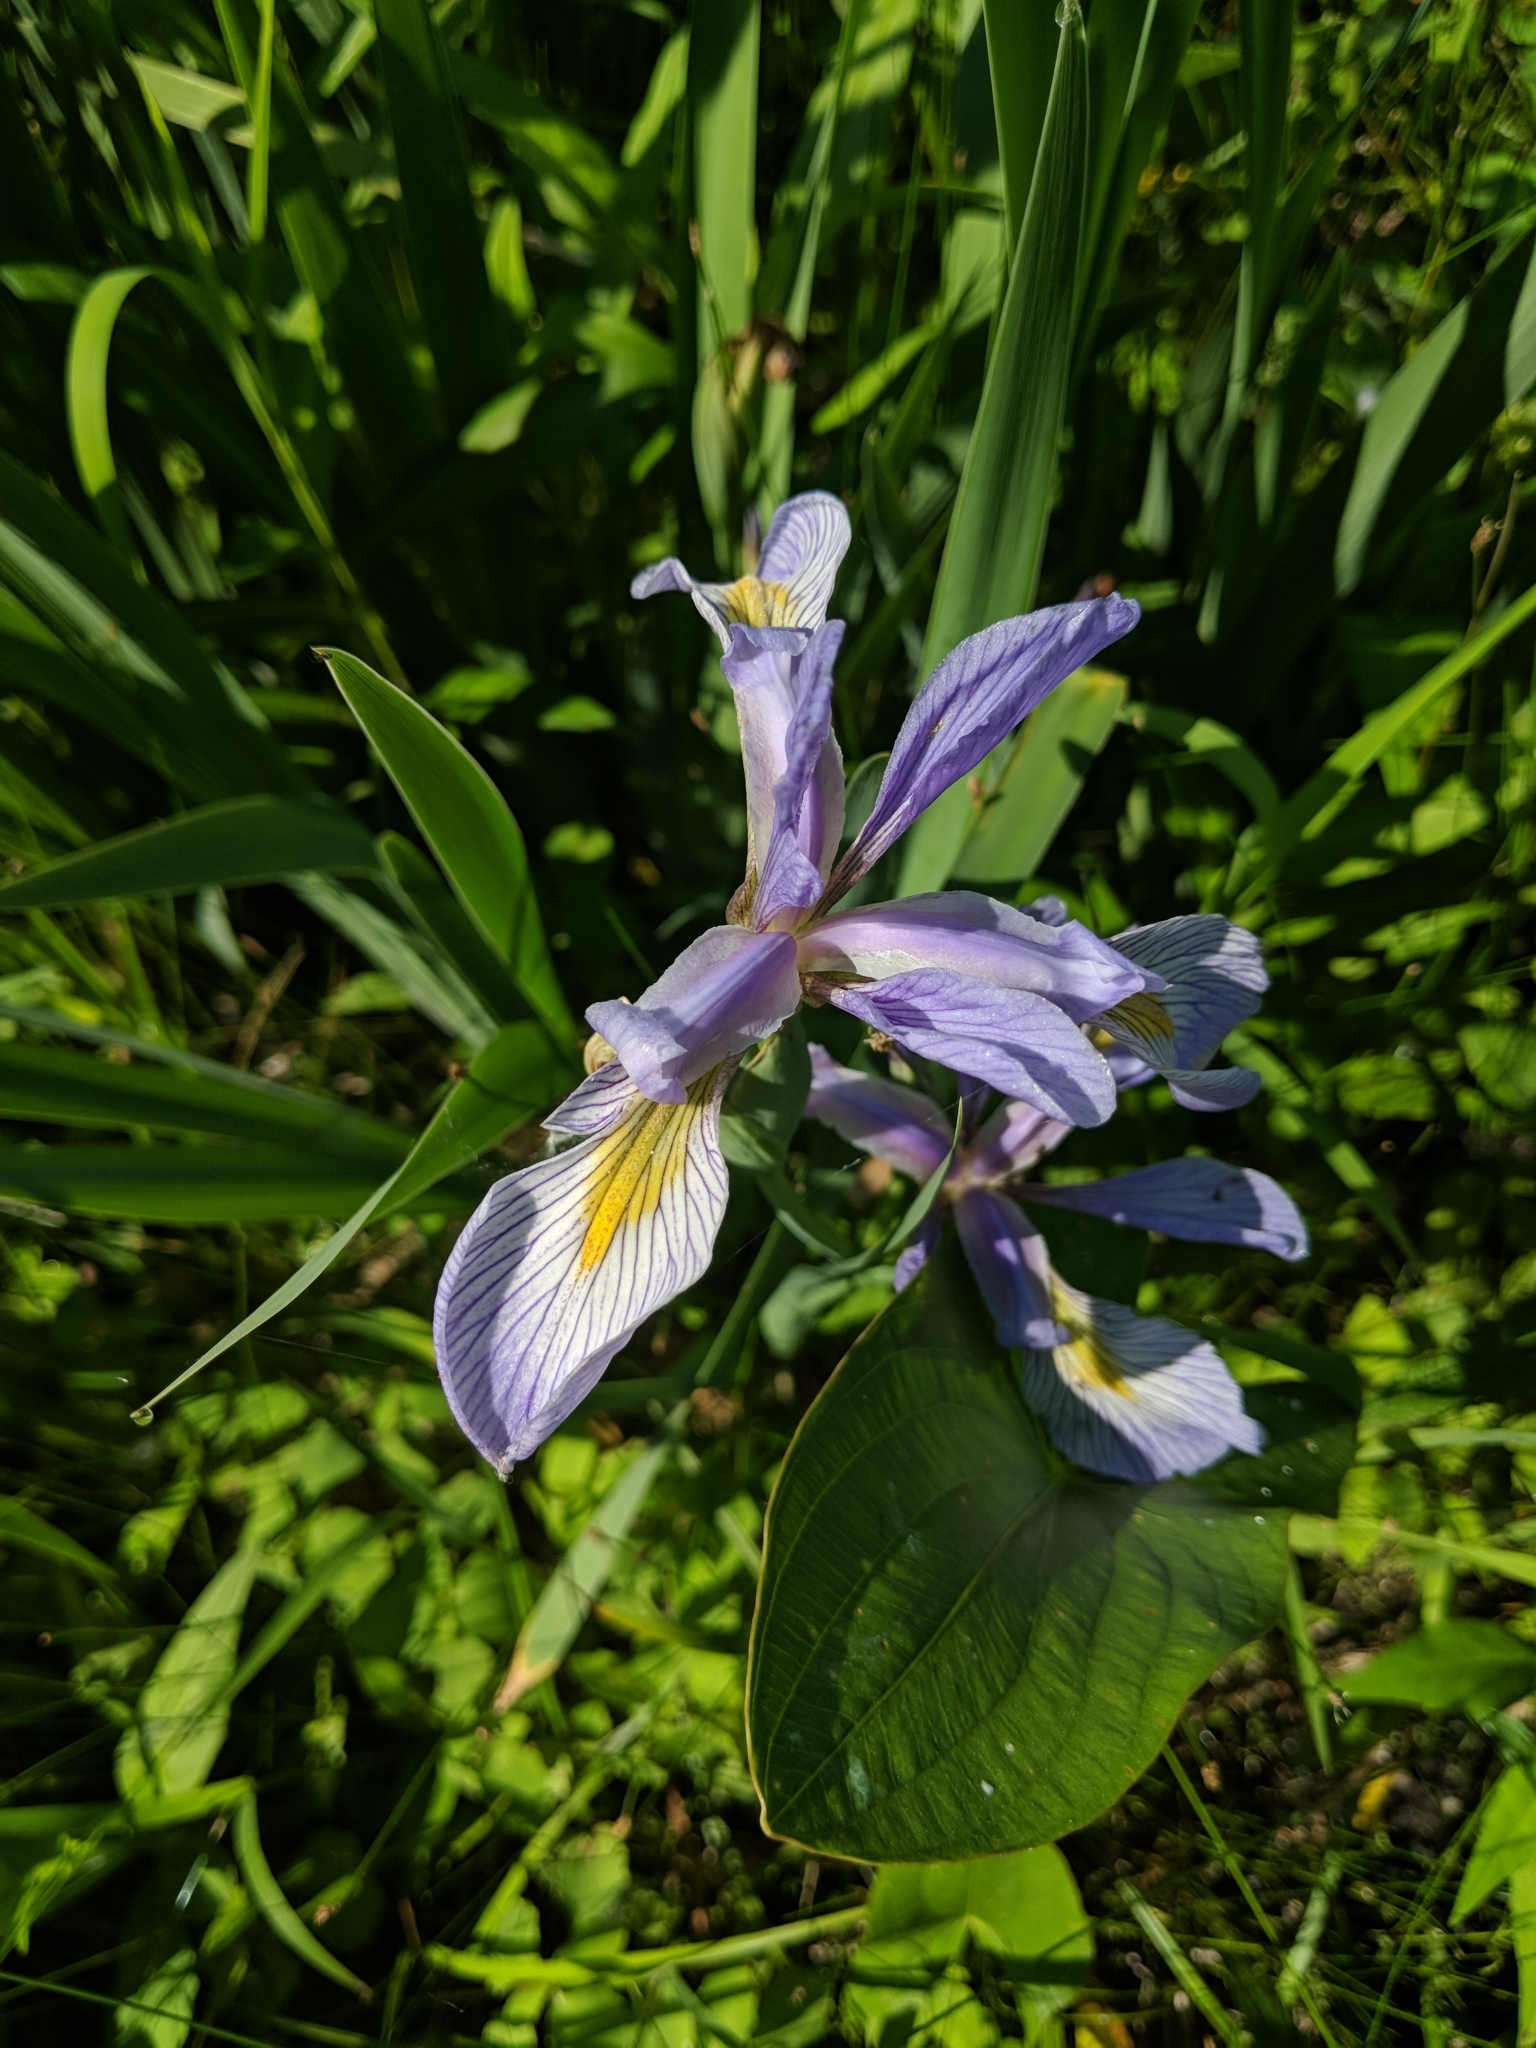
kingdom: Plantae
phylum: Tracheophyta
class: Liliopsida
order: Asparagales
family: Iridaceae
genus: Iris
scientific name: Iris virginica
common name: Southern blue flag
